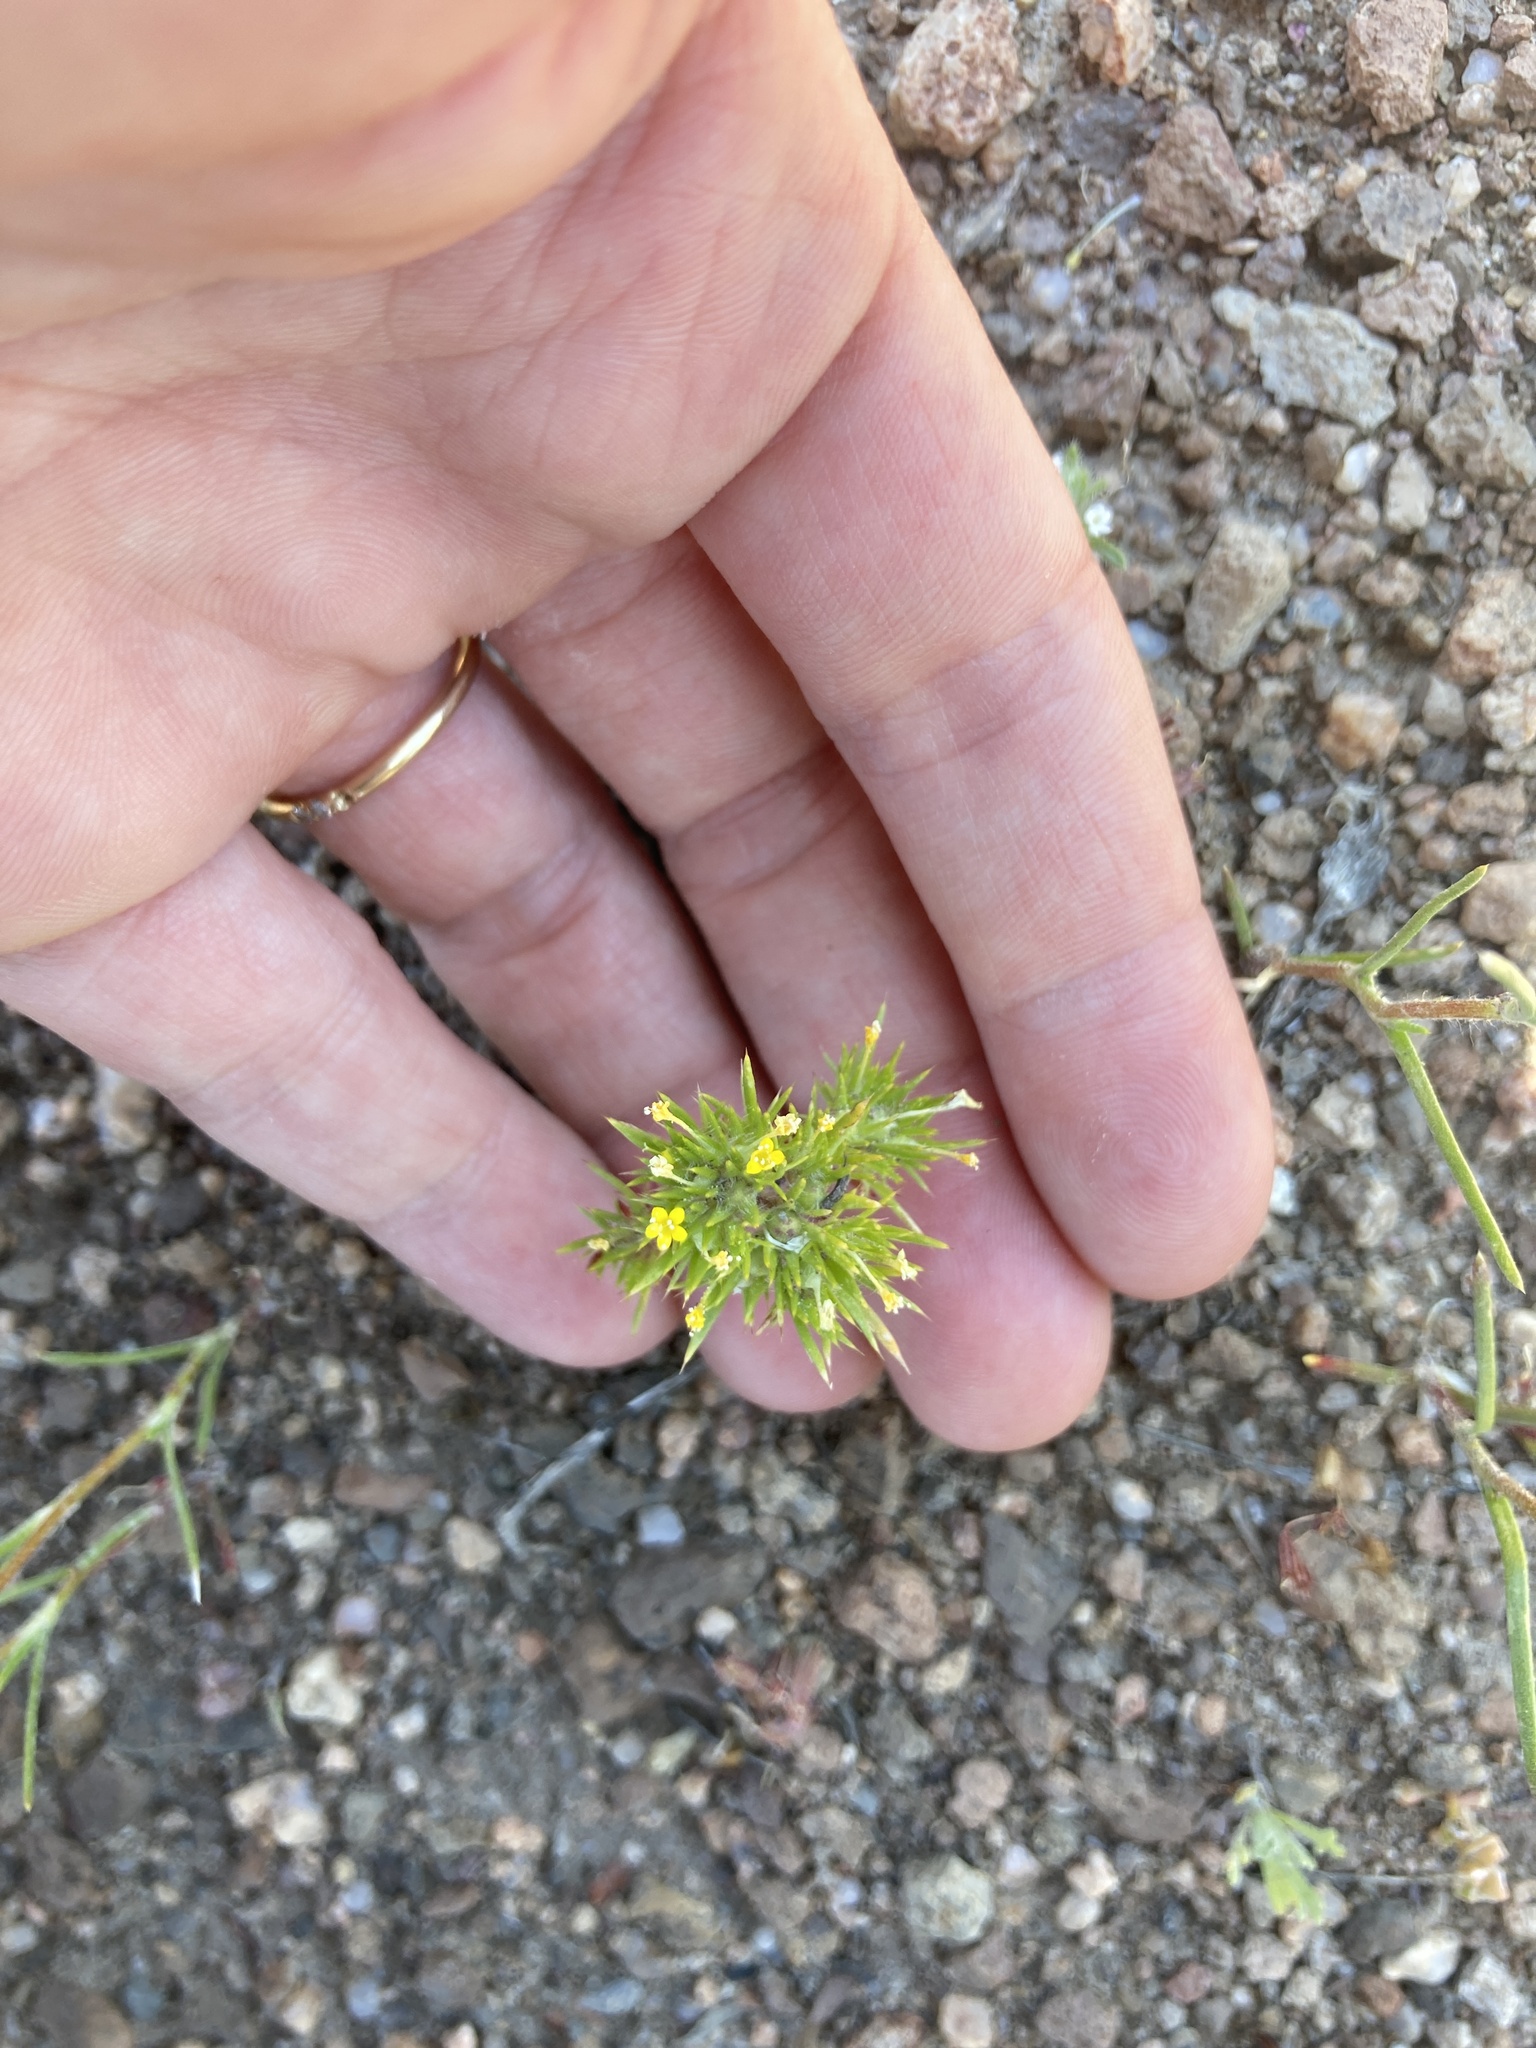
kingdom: Plantae
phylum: Tracheophyta
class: Magnoliopsida
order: Ericales
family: Polemoniaceae
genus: Navarretia
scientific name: Navarretia breweri
